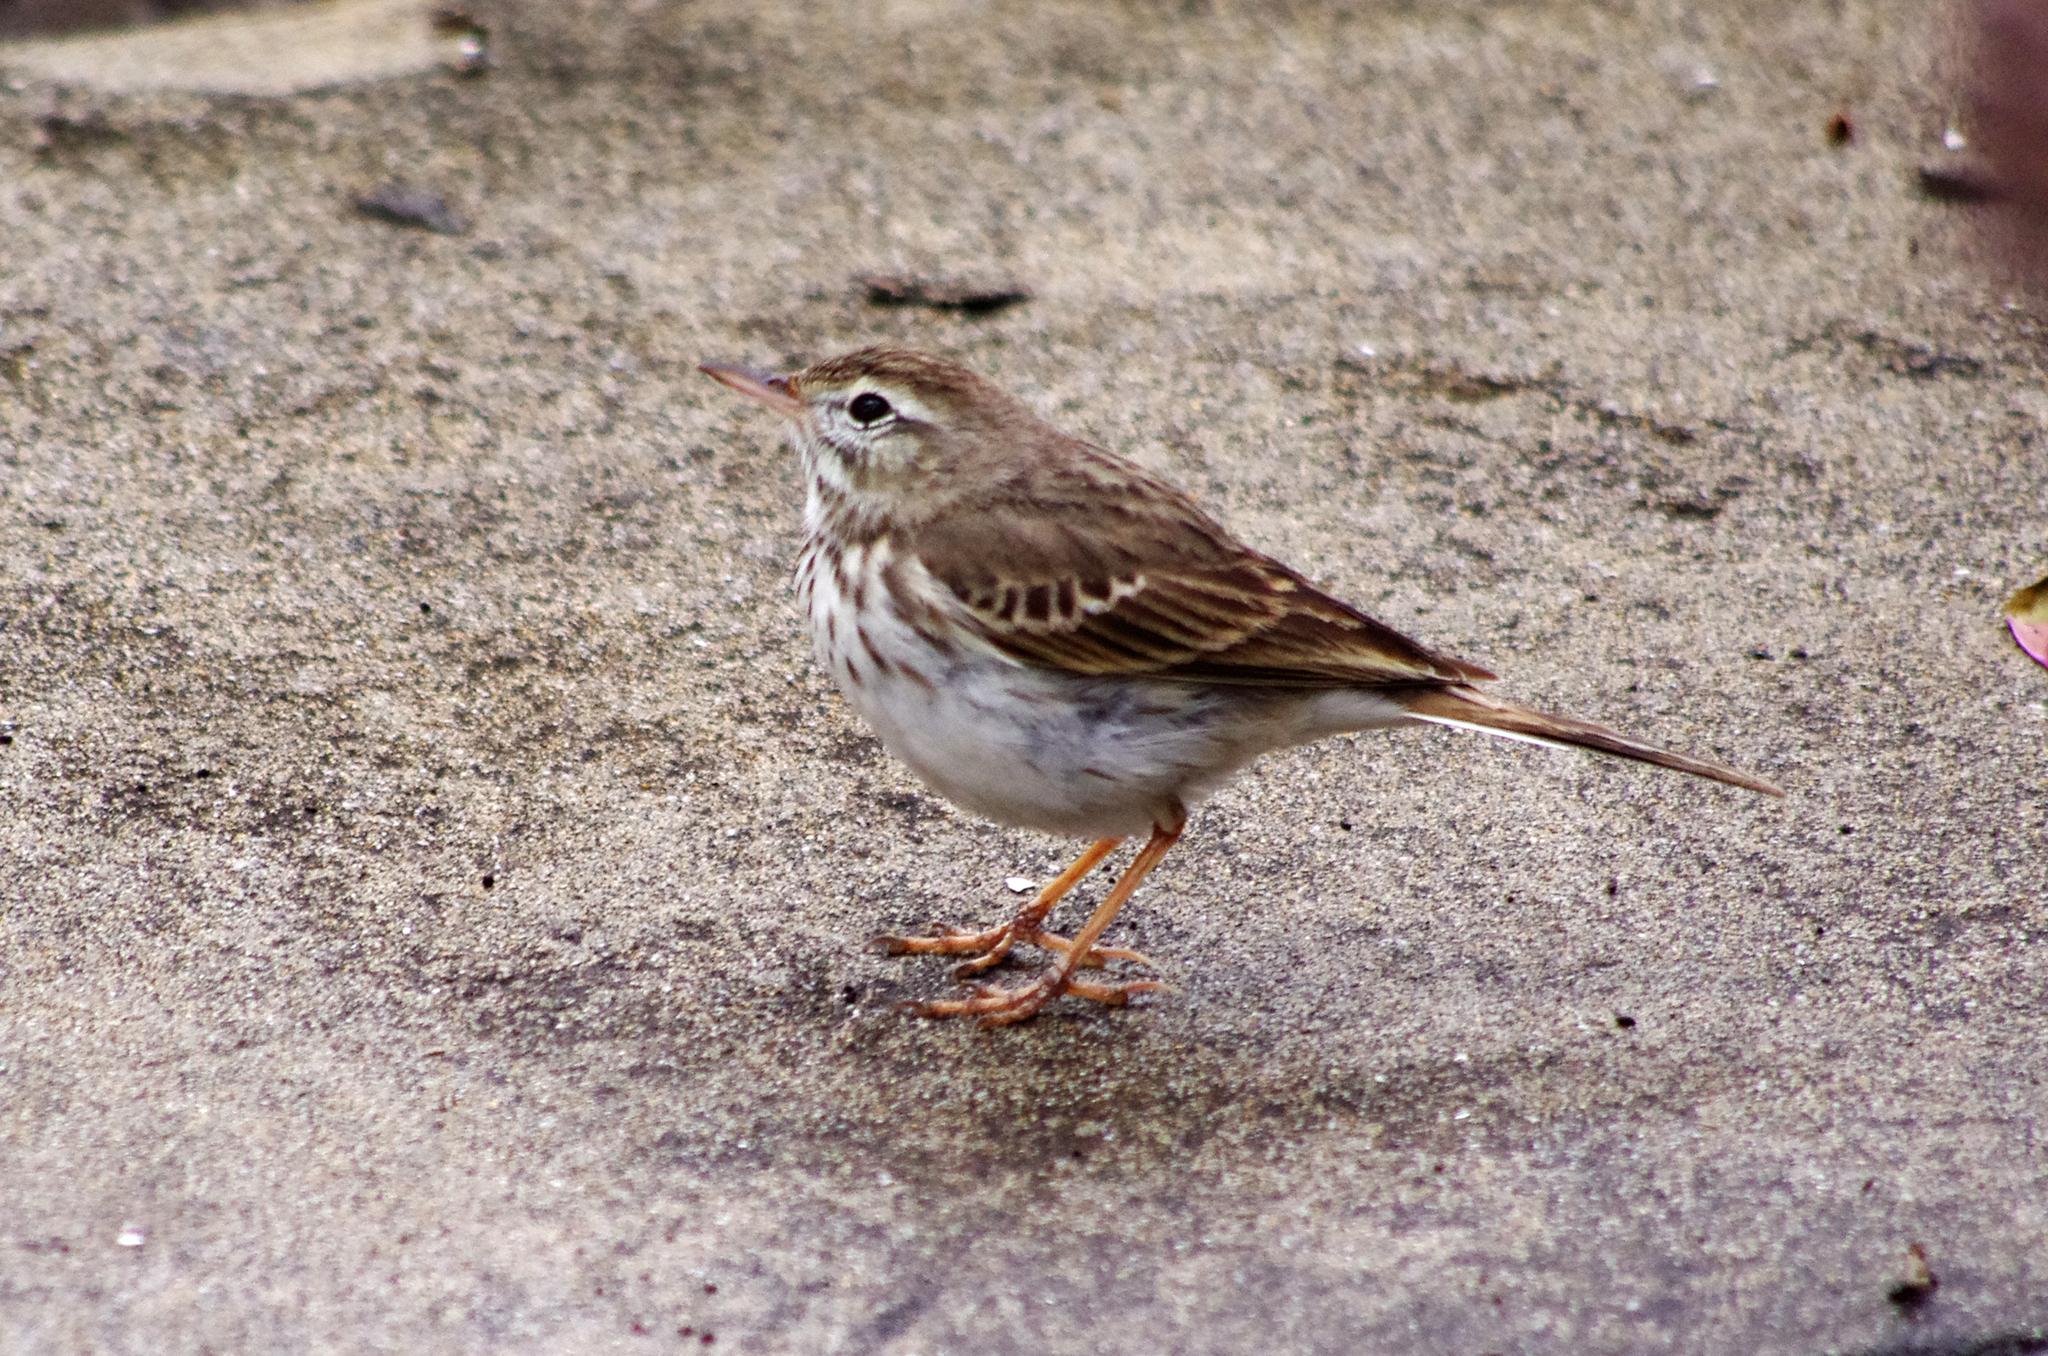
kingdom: Animalia
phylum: Chordata
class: Aves
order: Passeriformes
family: Motacillidae
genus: Anthus
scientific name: Anthus berthelotii
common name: Berthelot's pipit
